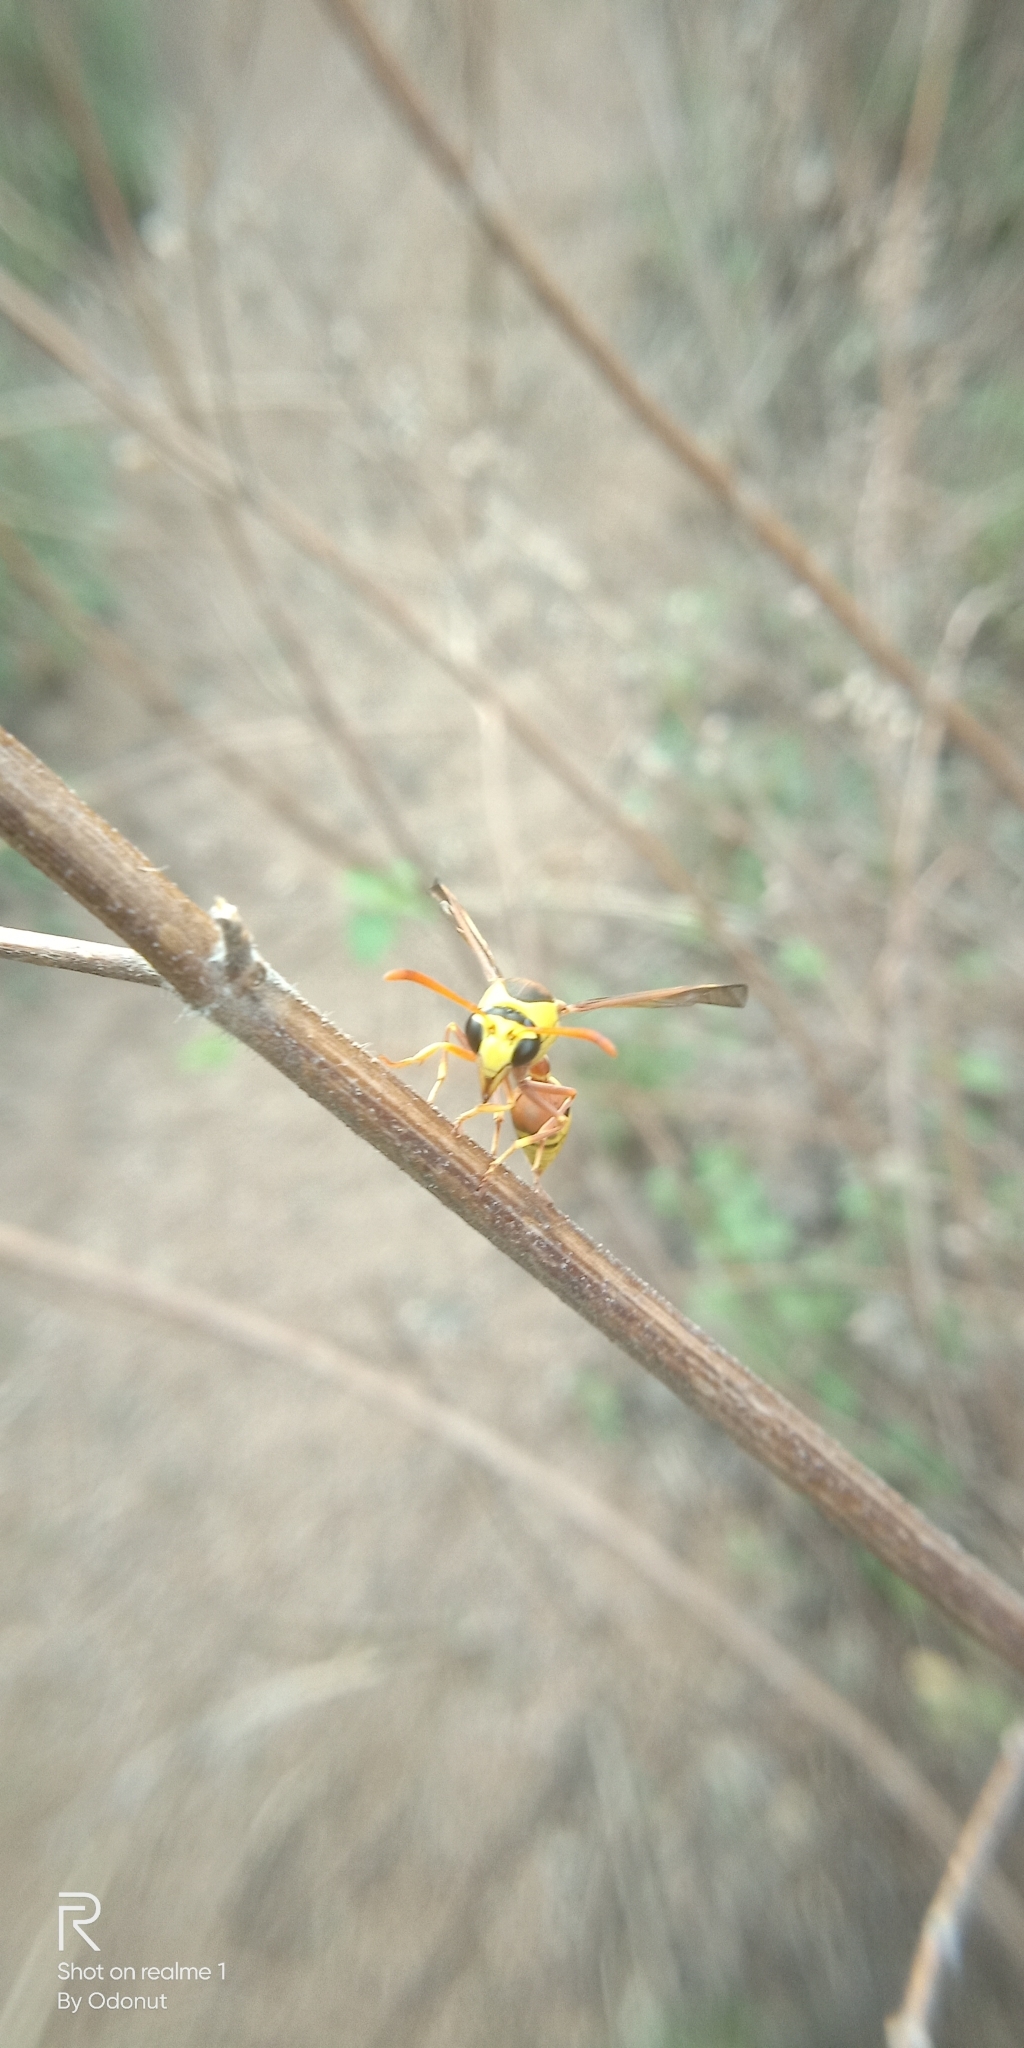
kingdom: Animalia
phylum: Arthropoda
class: Insecta
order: Hymenoptera
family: Eumenidae
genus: Delta
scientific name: Delta esuriens
